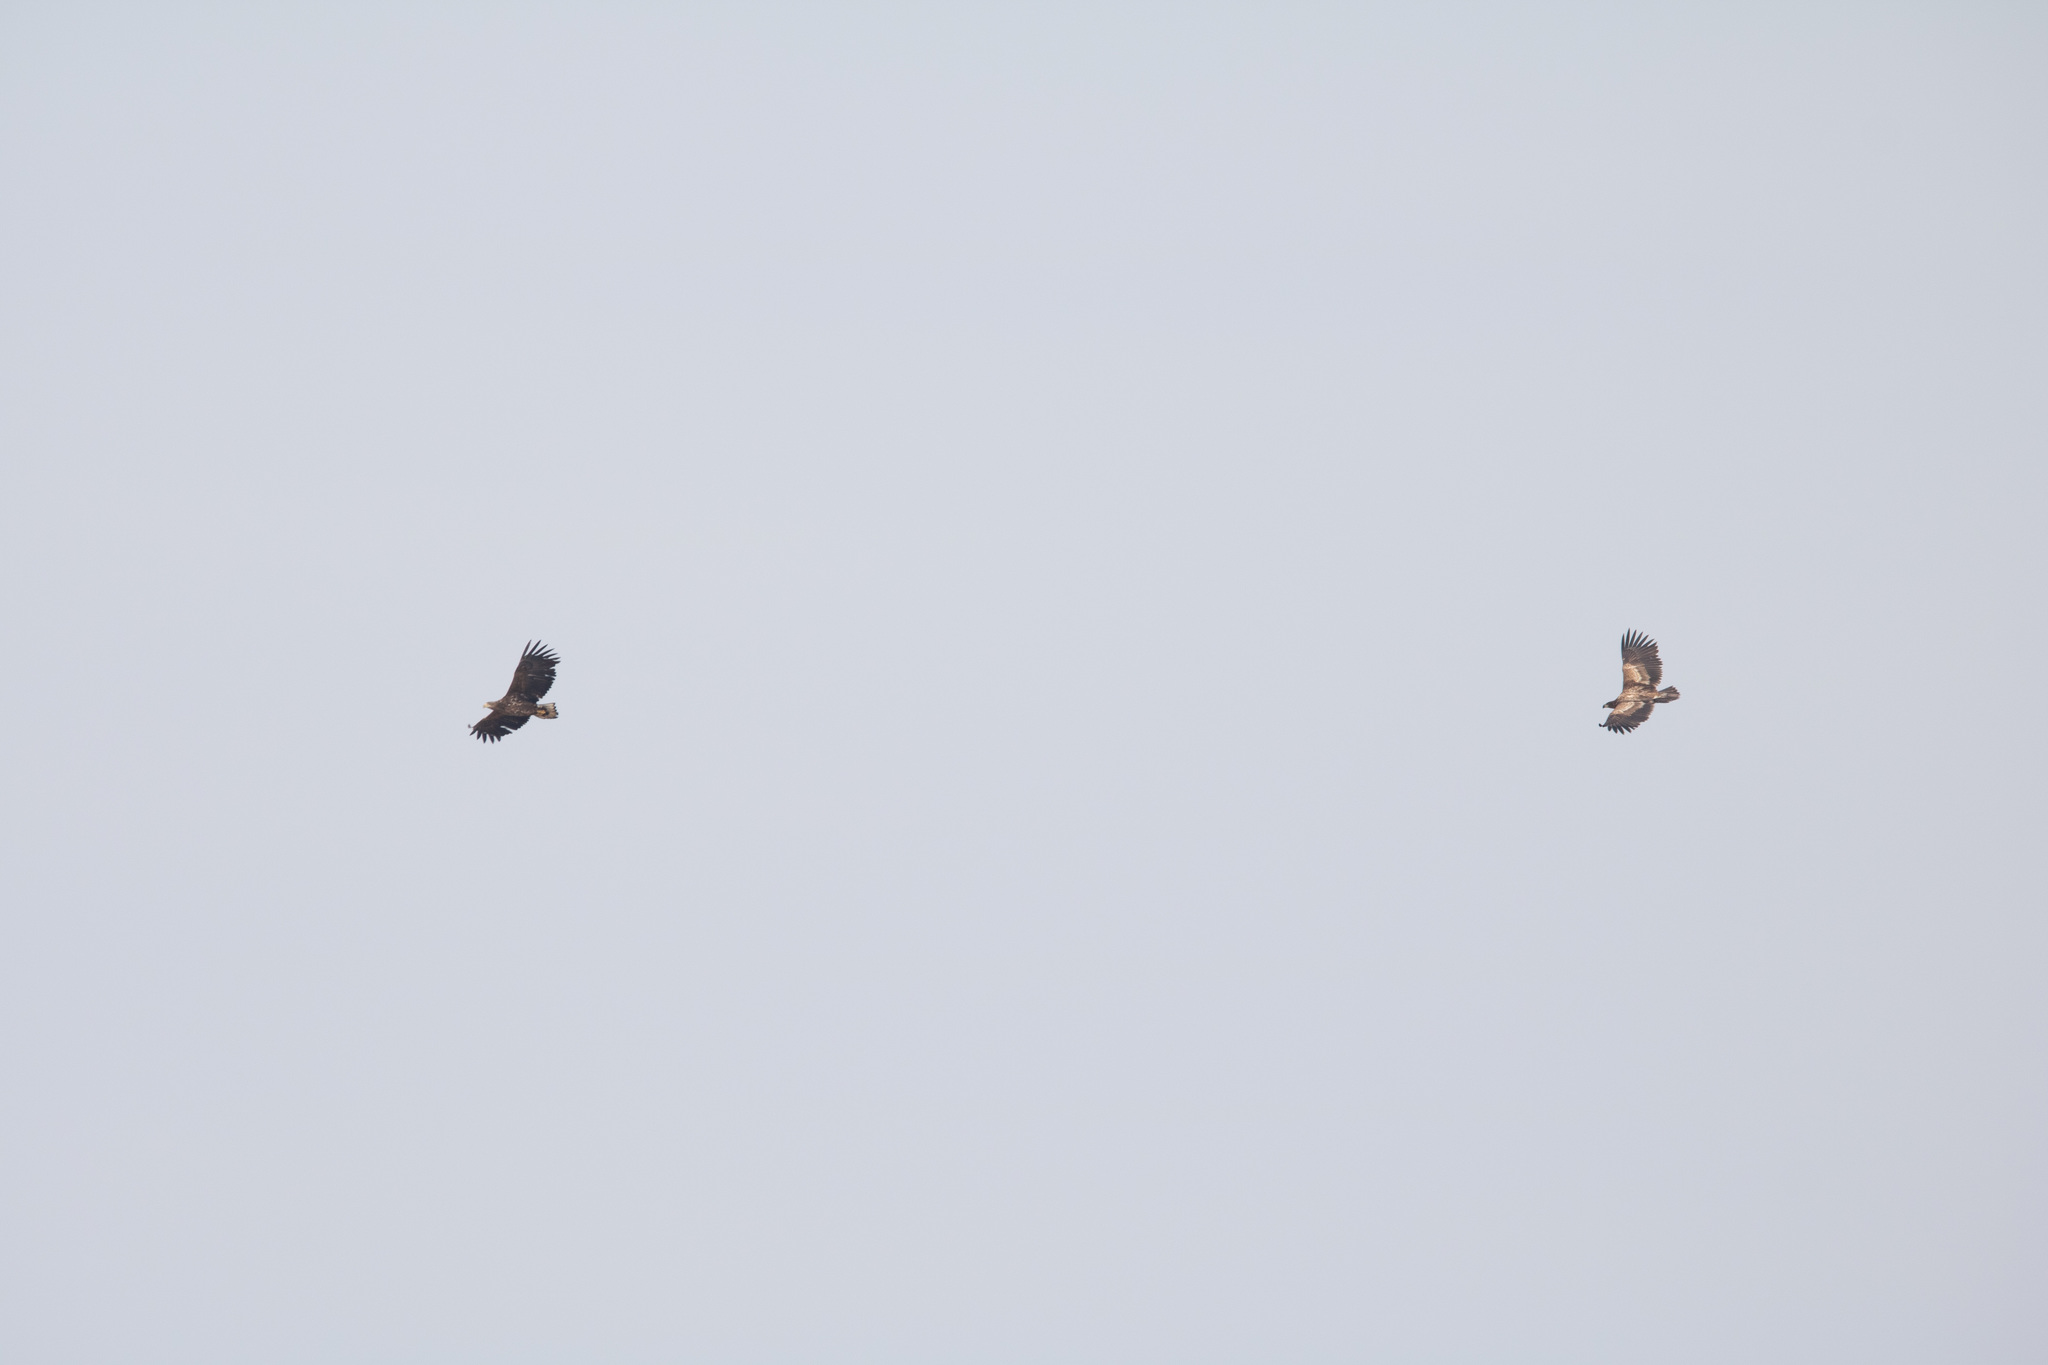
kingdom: Animalia
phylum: Chordata
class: Aves
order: Accipitriformes
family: Accipitridae
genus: Haliaeetus
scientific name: Haliaeetus albicilla
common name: White-tailed eagle
